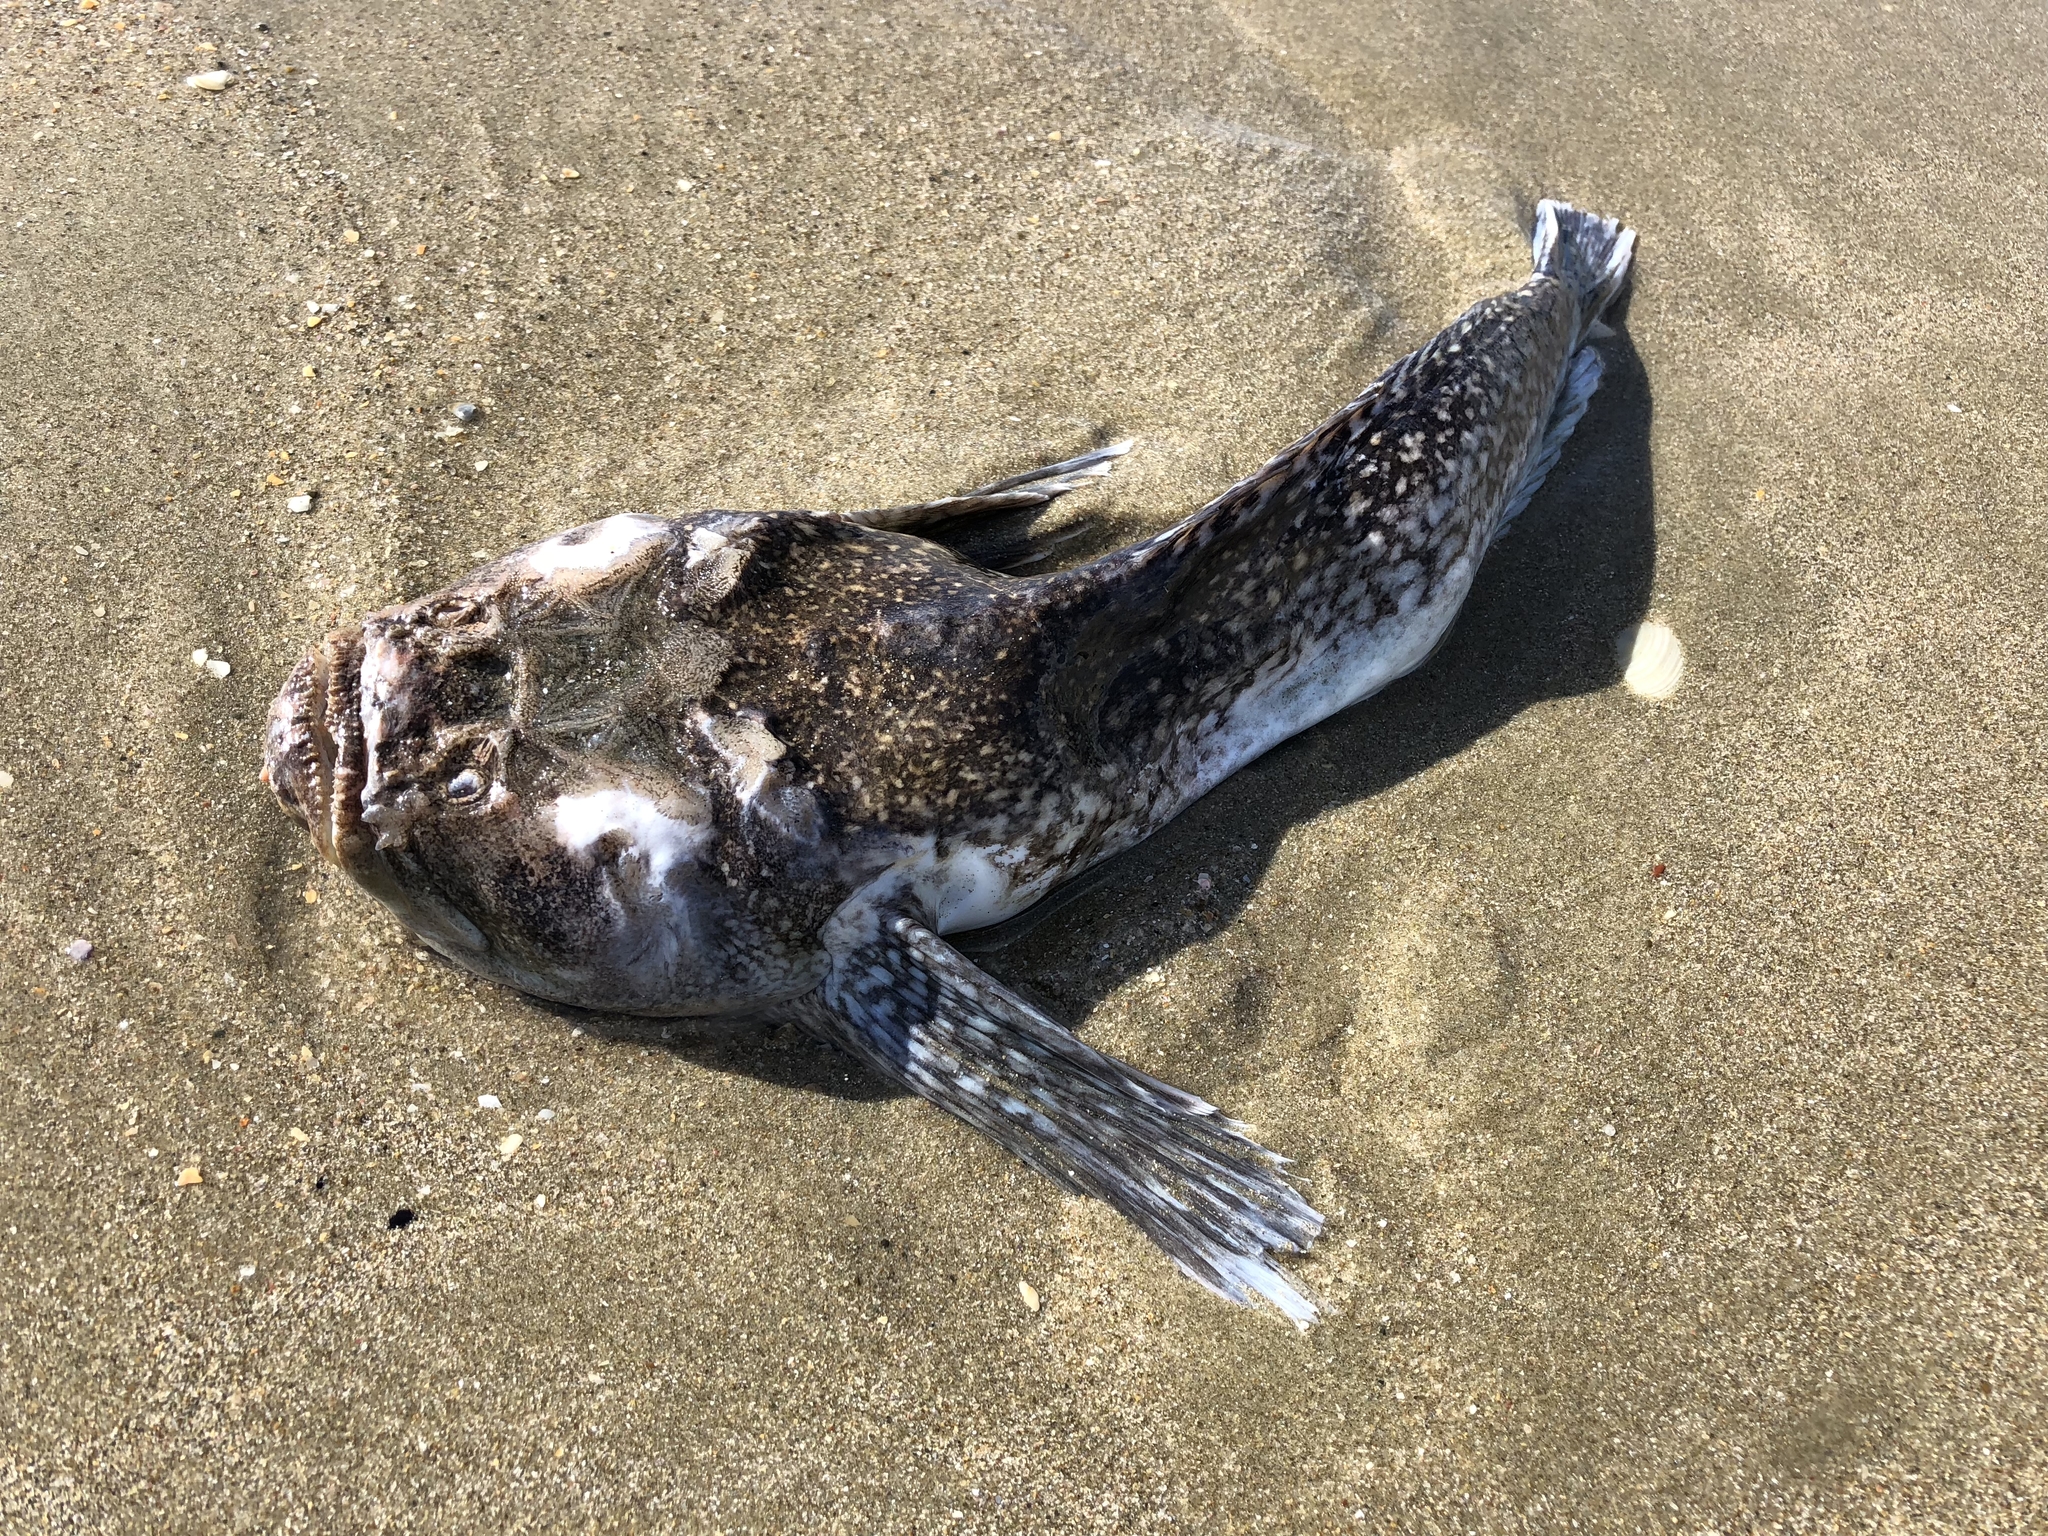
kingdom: Animalia
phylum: Chordata
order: Perciformes
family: Uranoscopidae
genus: Genyagnus
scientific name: Genyagnus monopterygius
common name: Spotted stargazer
